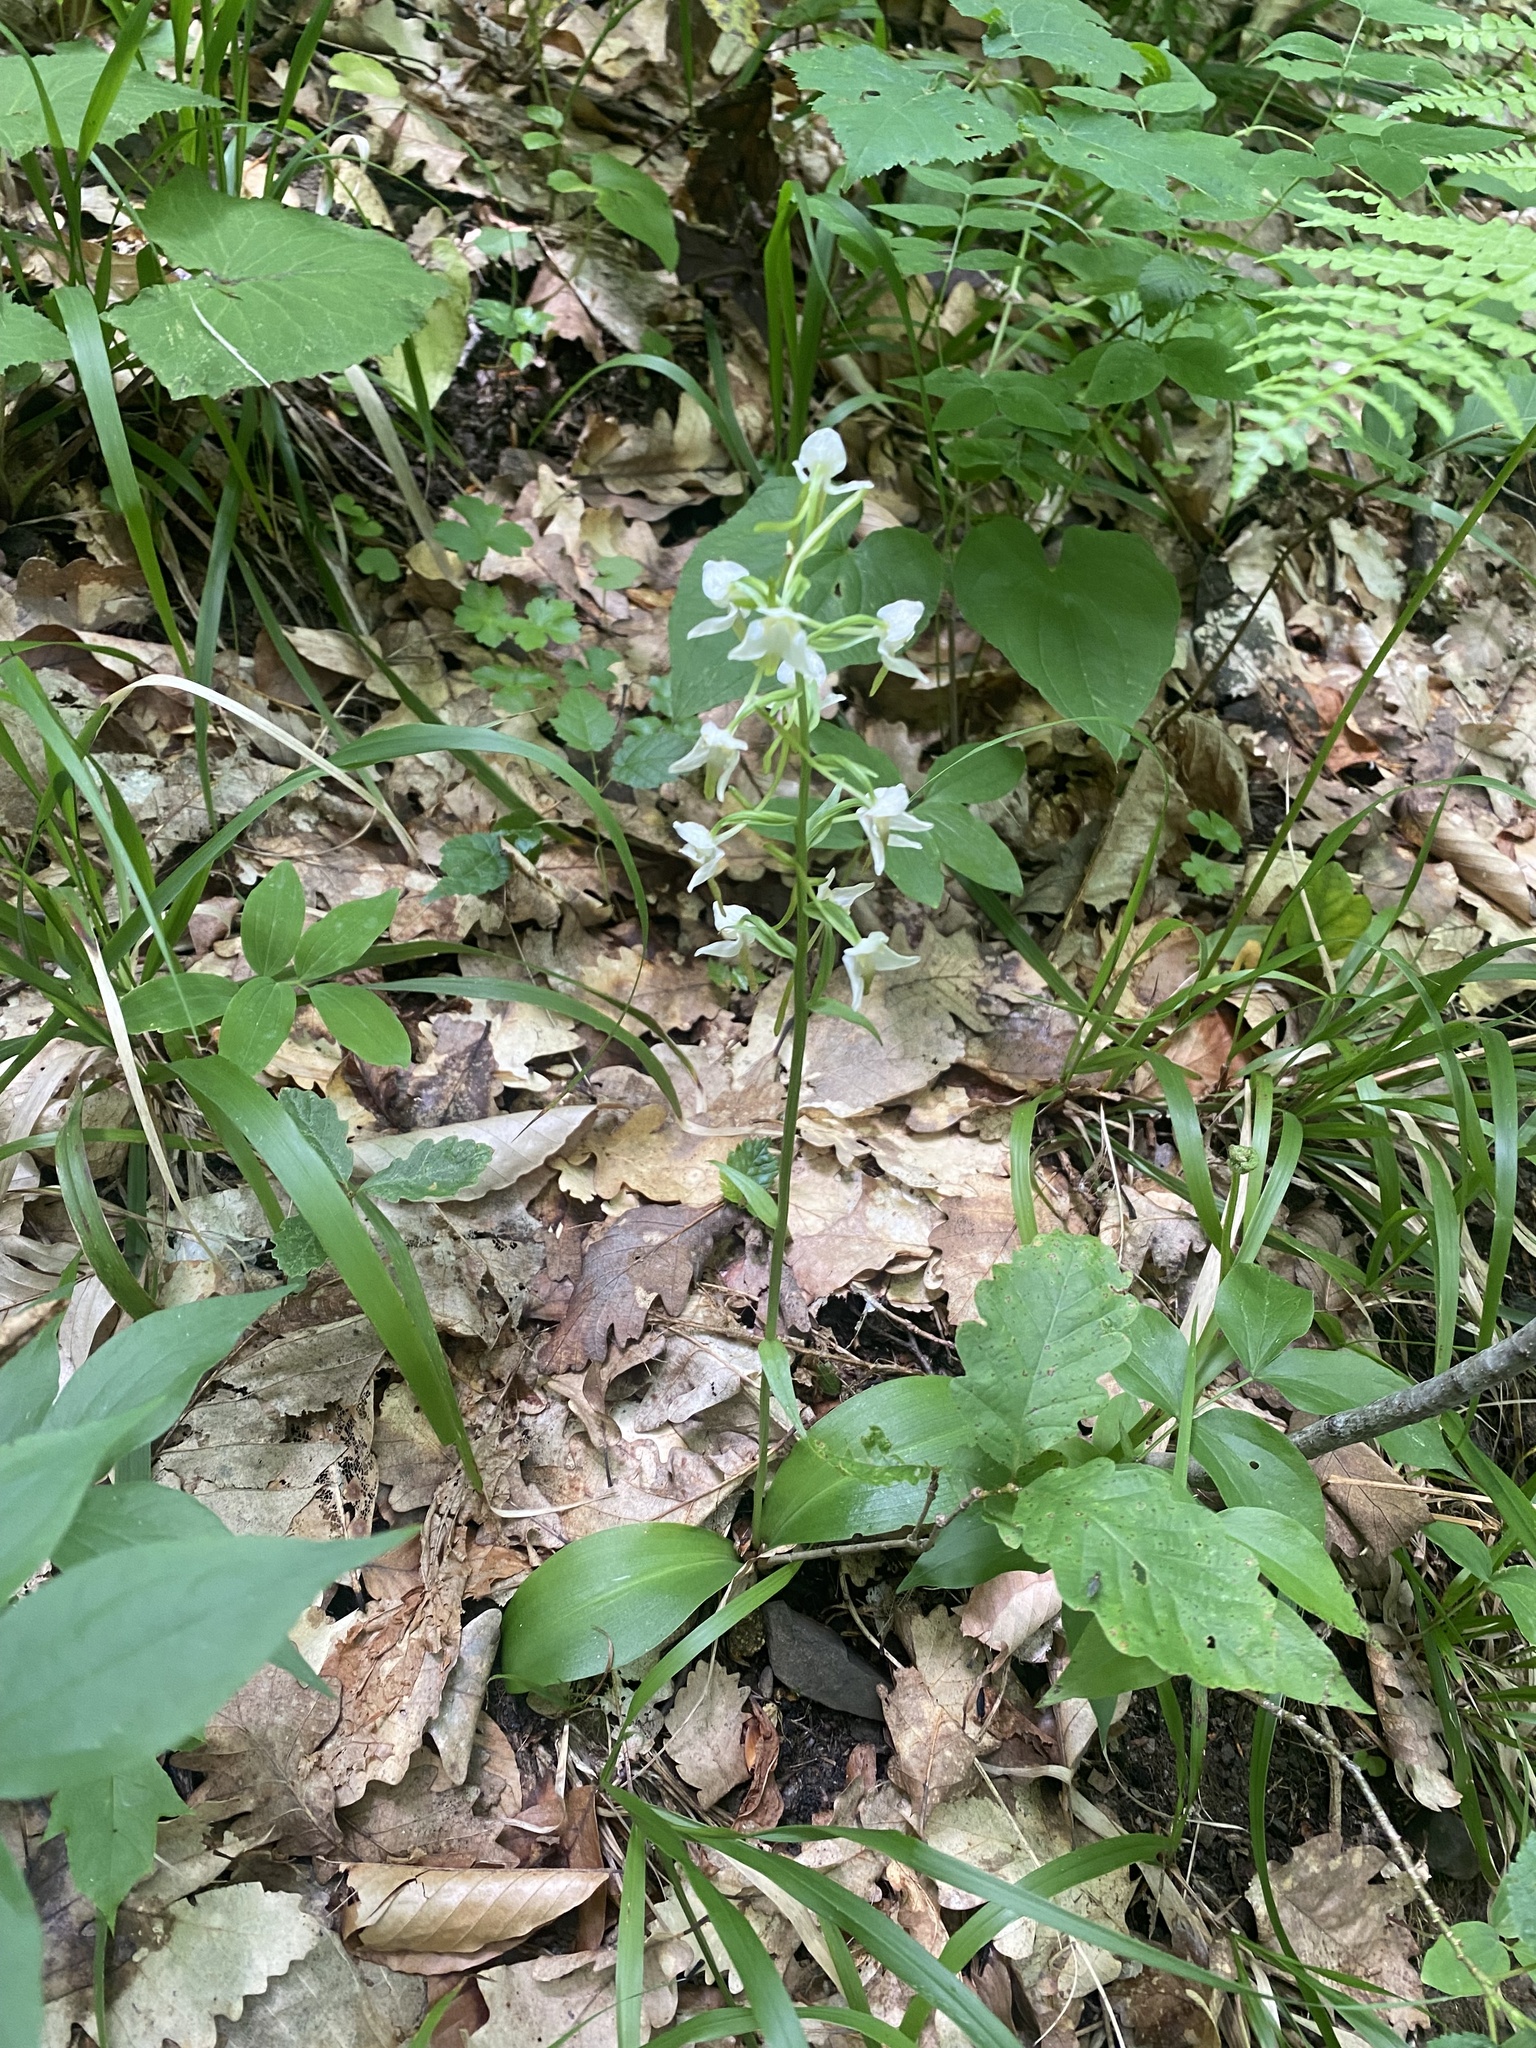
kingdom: Plantae
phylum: Tracheophyta
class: Liliopsida
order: Asparagales
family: Orchidaceae
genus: Platanthera
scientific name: Platanthera chlorantha
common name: Greater butterfly-orchid
